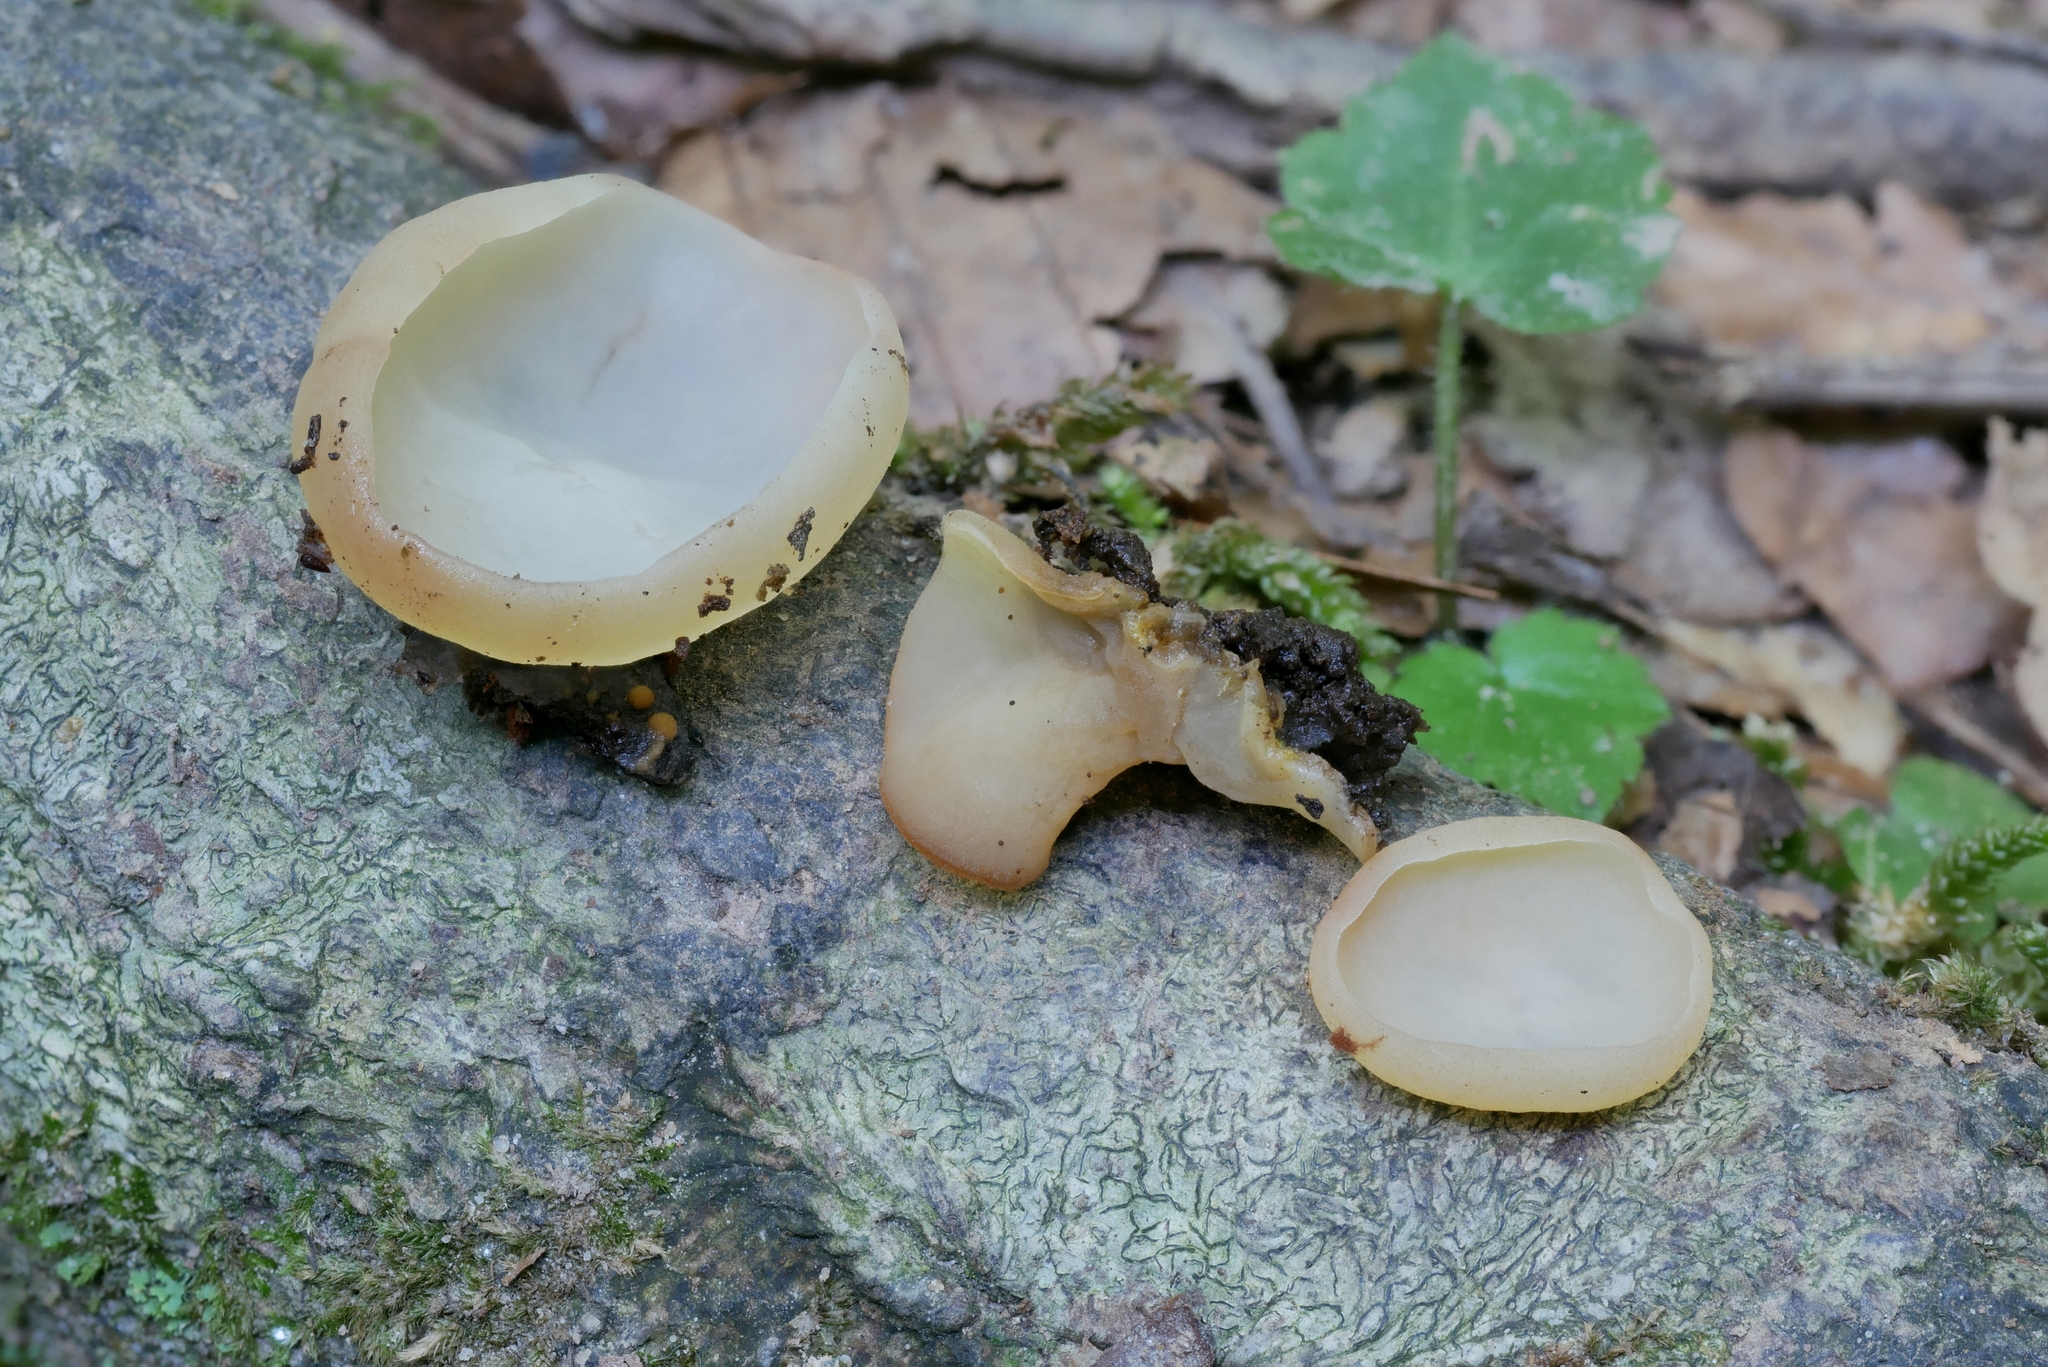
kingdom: Fungi
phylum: Ascomycota
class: Pezizomycetes
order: Pezizales
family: Pezizaceae
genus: Peziza
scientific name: Peziza varia
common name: Layered cup
